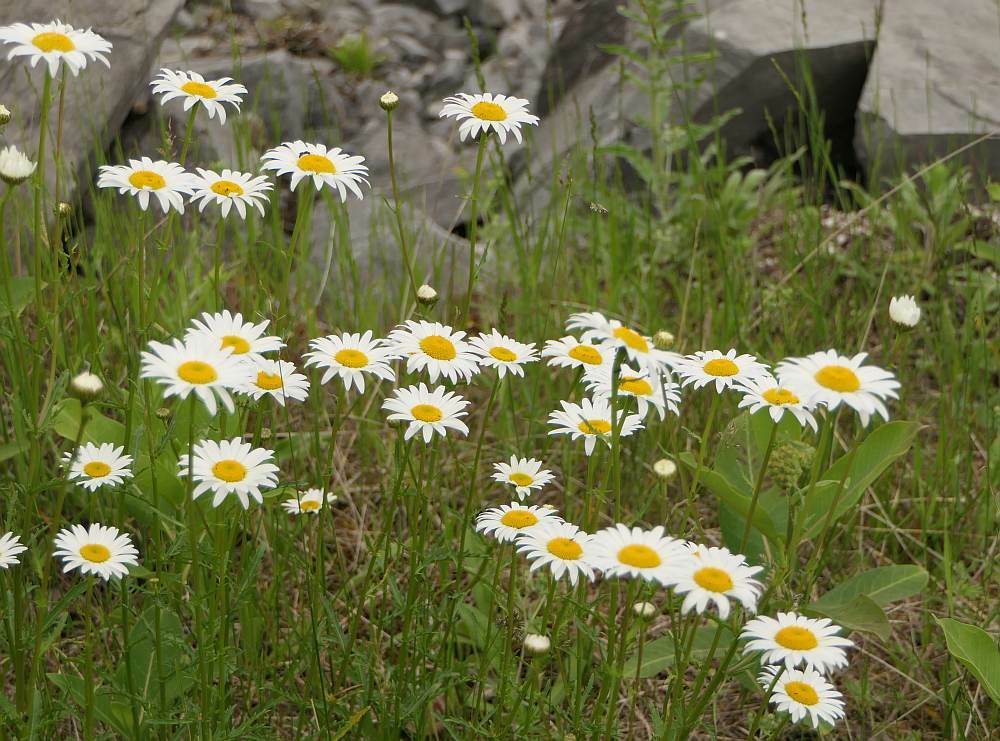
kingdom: Plantae
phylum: Tracheophyta
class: Magnoliopsida
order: Asterales
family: Asteraceae
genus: Leucanthemum
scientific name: Leucanthemum vulgare
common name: Oxeye daisy
